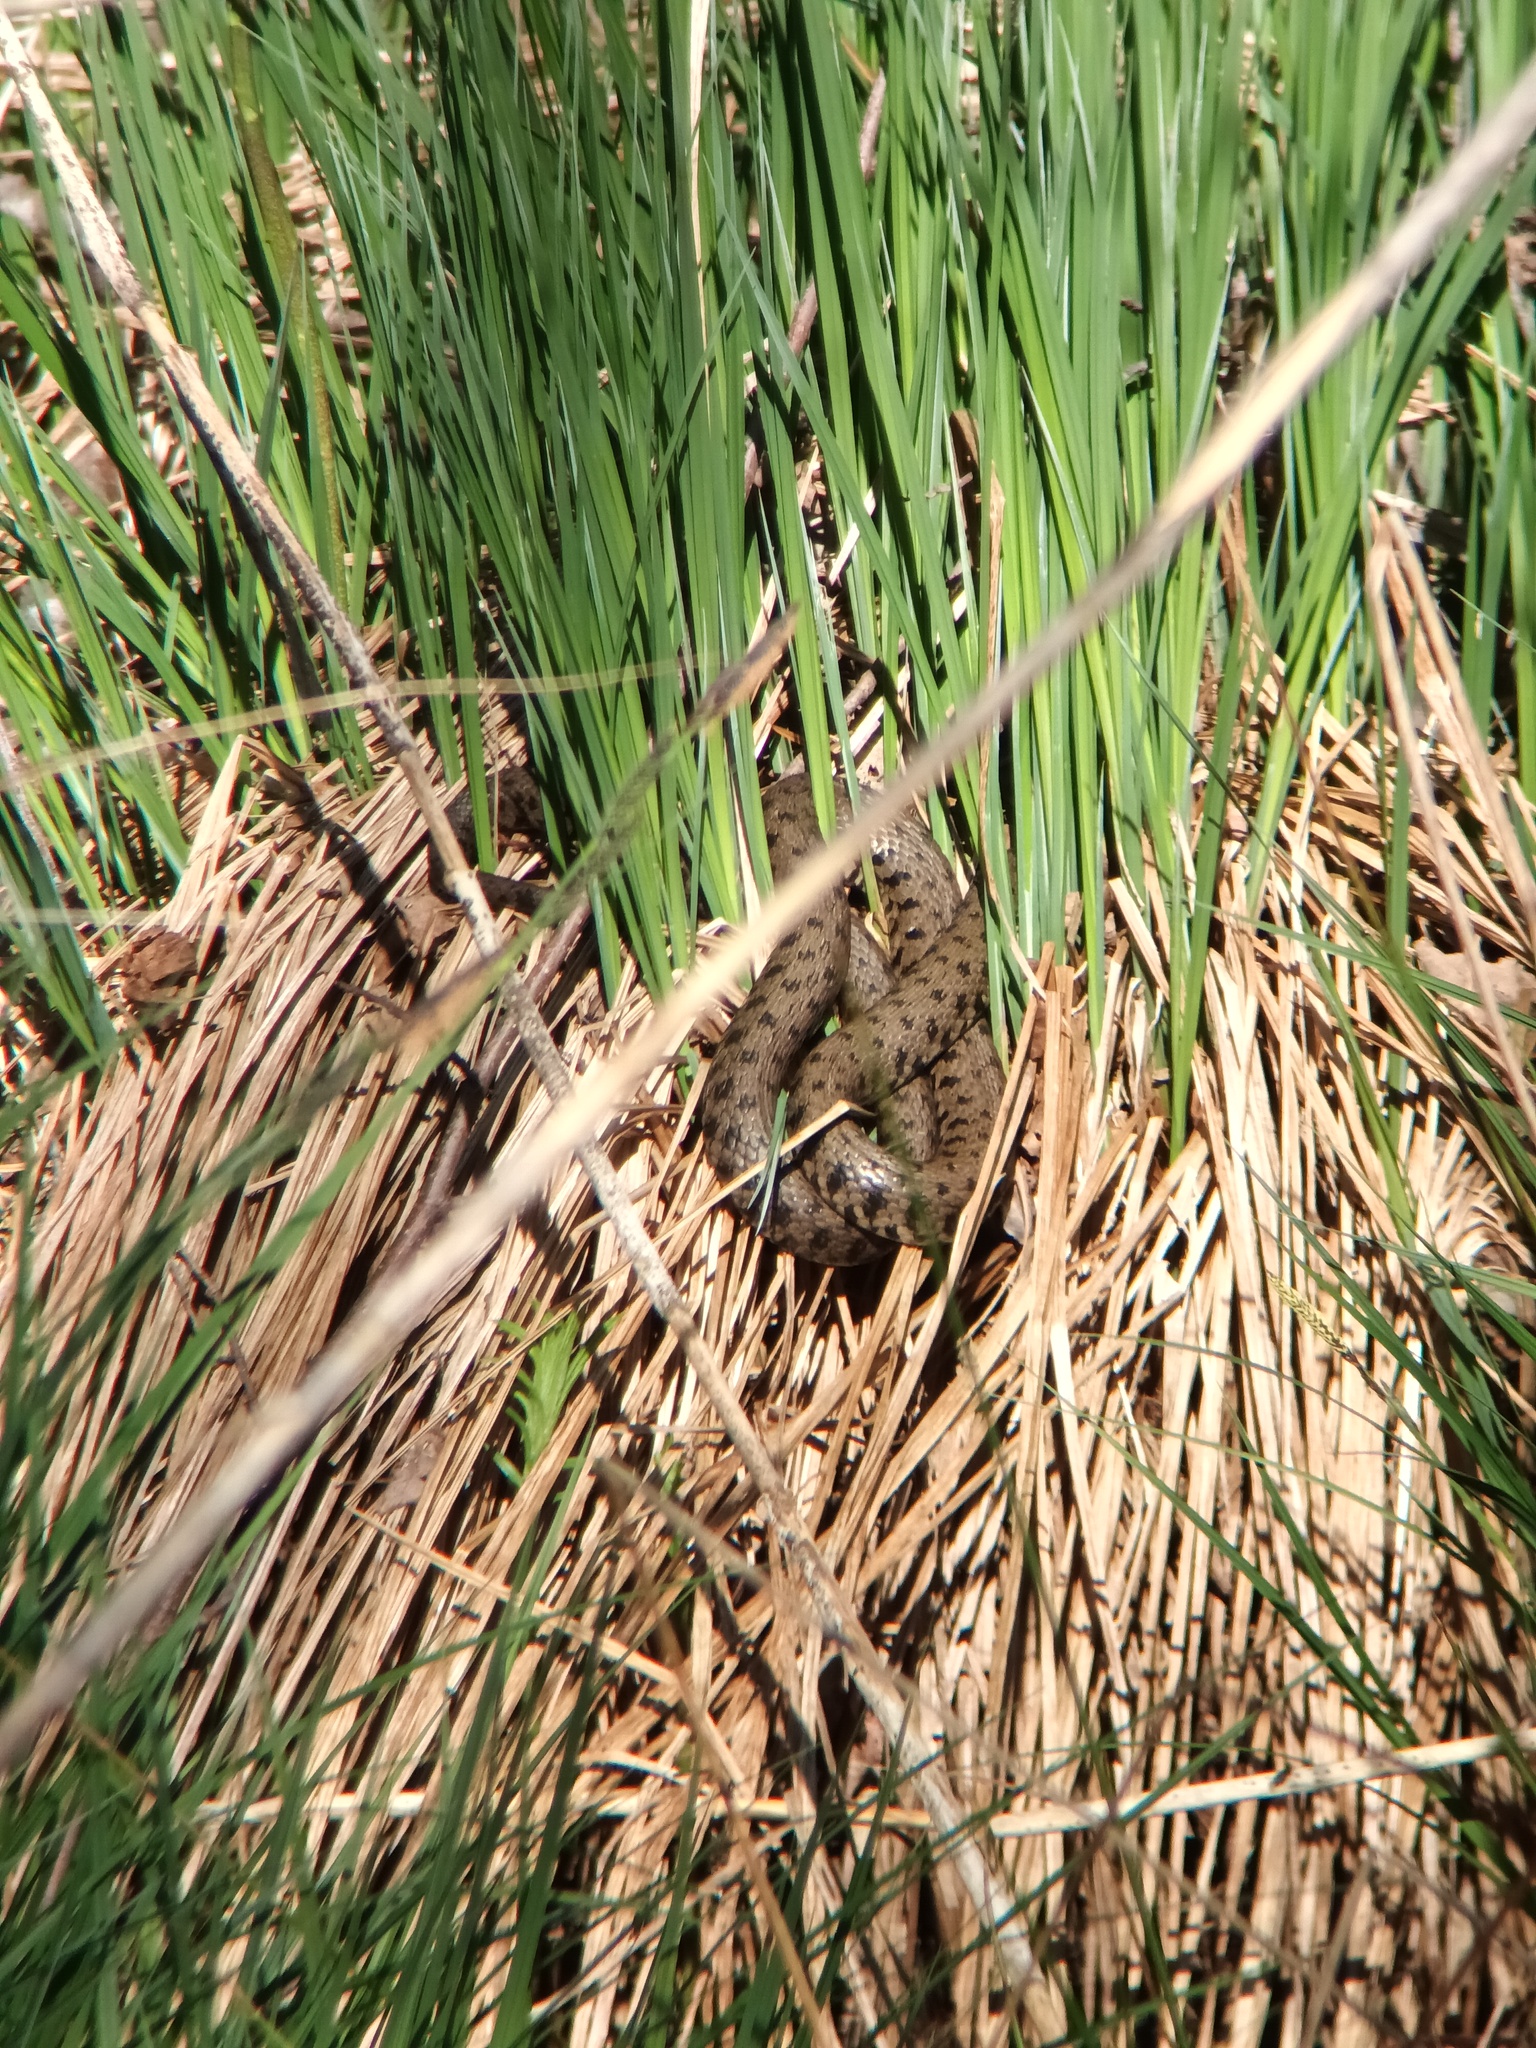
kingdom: Animalia
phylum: Chordata
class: Squamata
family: Colubridae
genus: Natrix
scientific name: Natrix helvetica
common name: Banded grass snake
